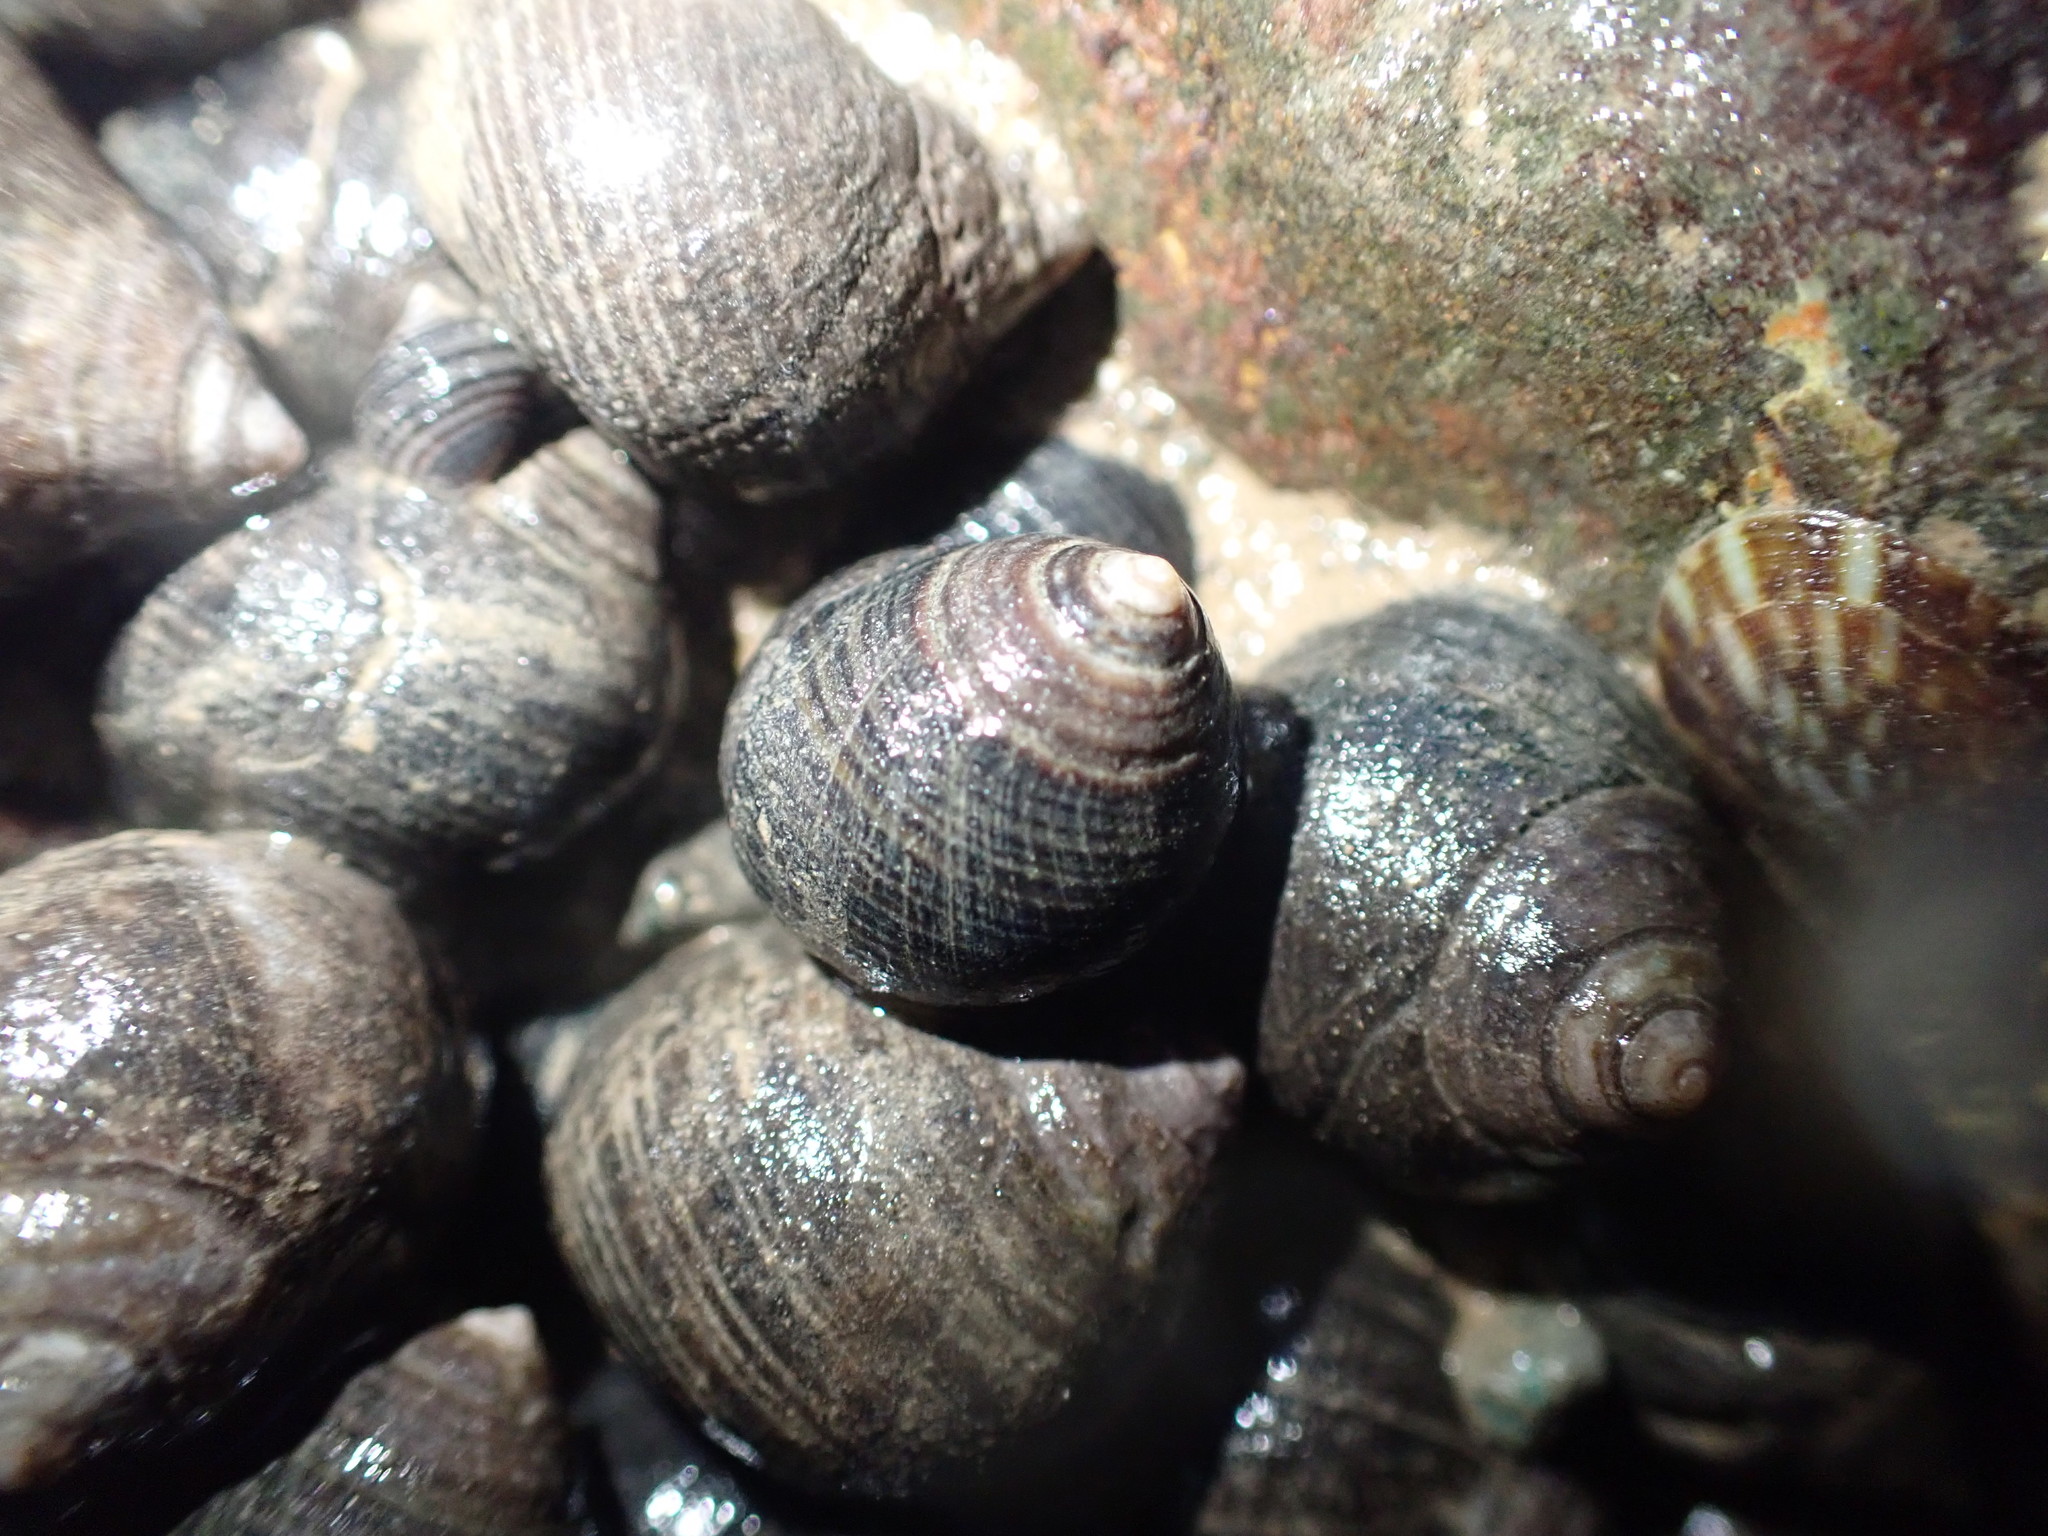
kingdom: Animalia
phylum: Mollusca
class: Gastropoda
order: Littorinimorpha
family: Littorinidae
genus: Littorina
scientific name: Littorina littorea
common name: Common periwinkle
